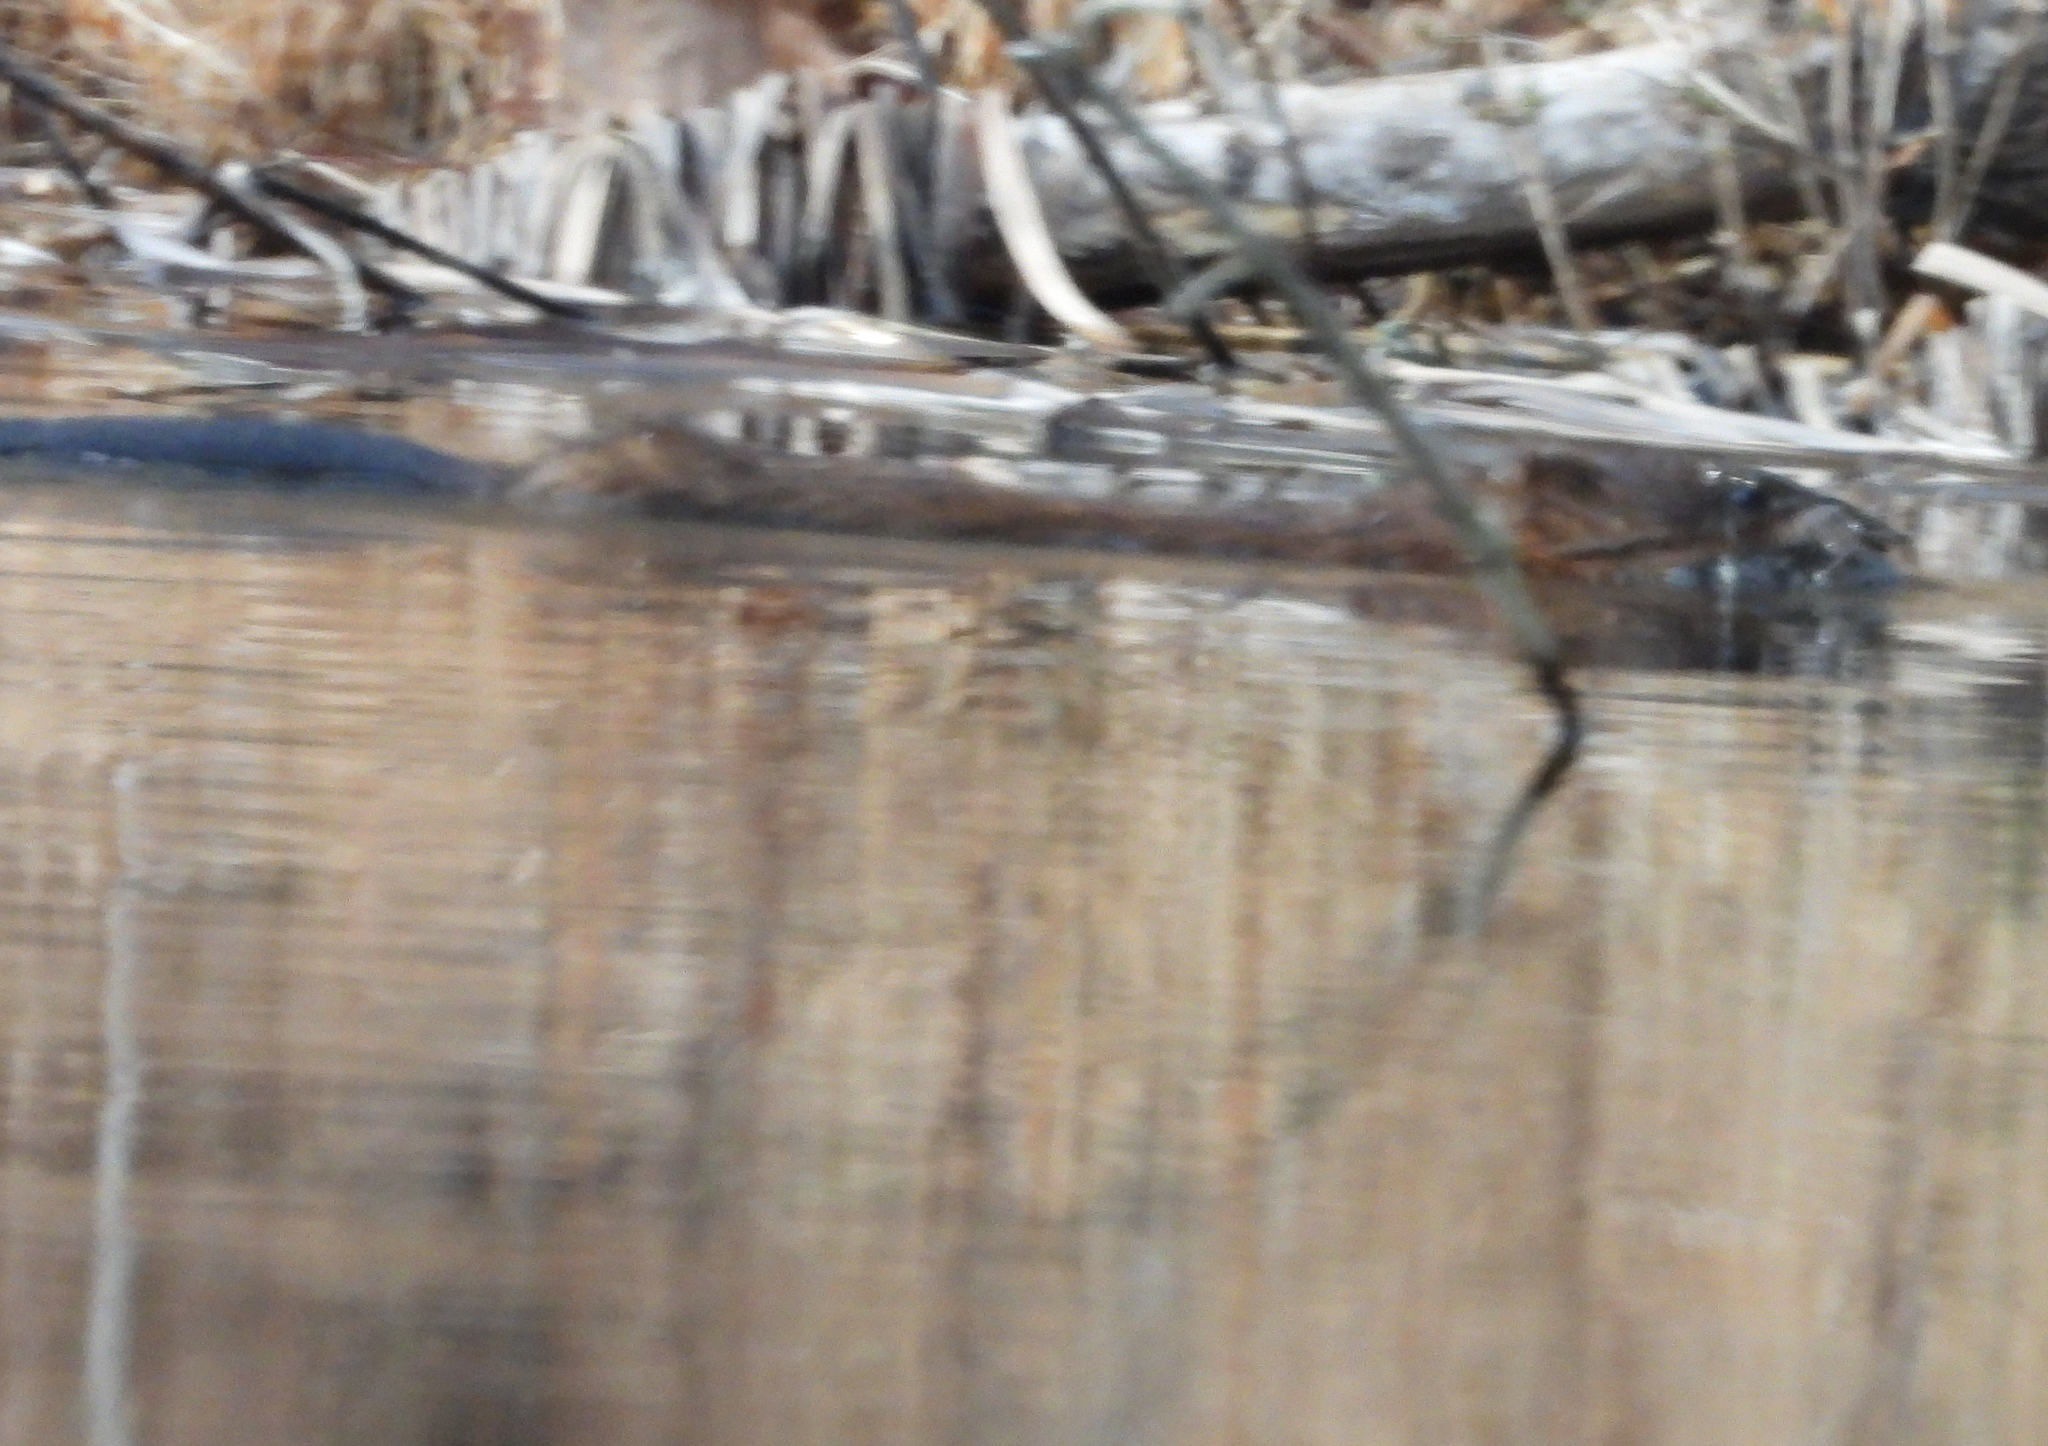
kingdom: Animalia
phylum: Chordata
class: Mammalia
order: Rodentia
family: Cricetidae
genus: Ondatra
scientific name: Ondatra zibethicus
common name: Muskrat
